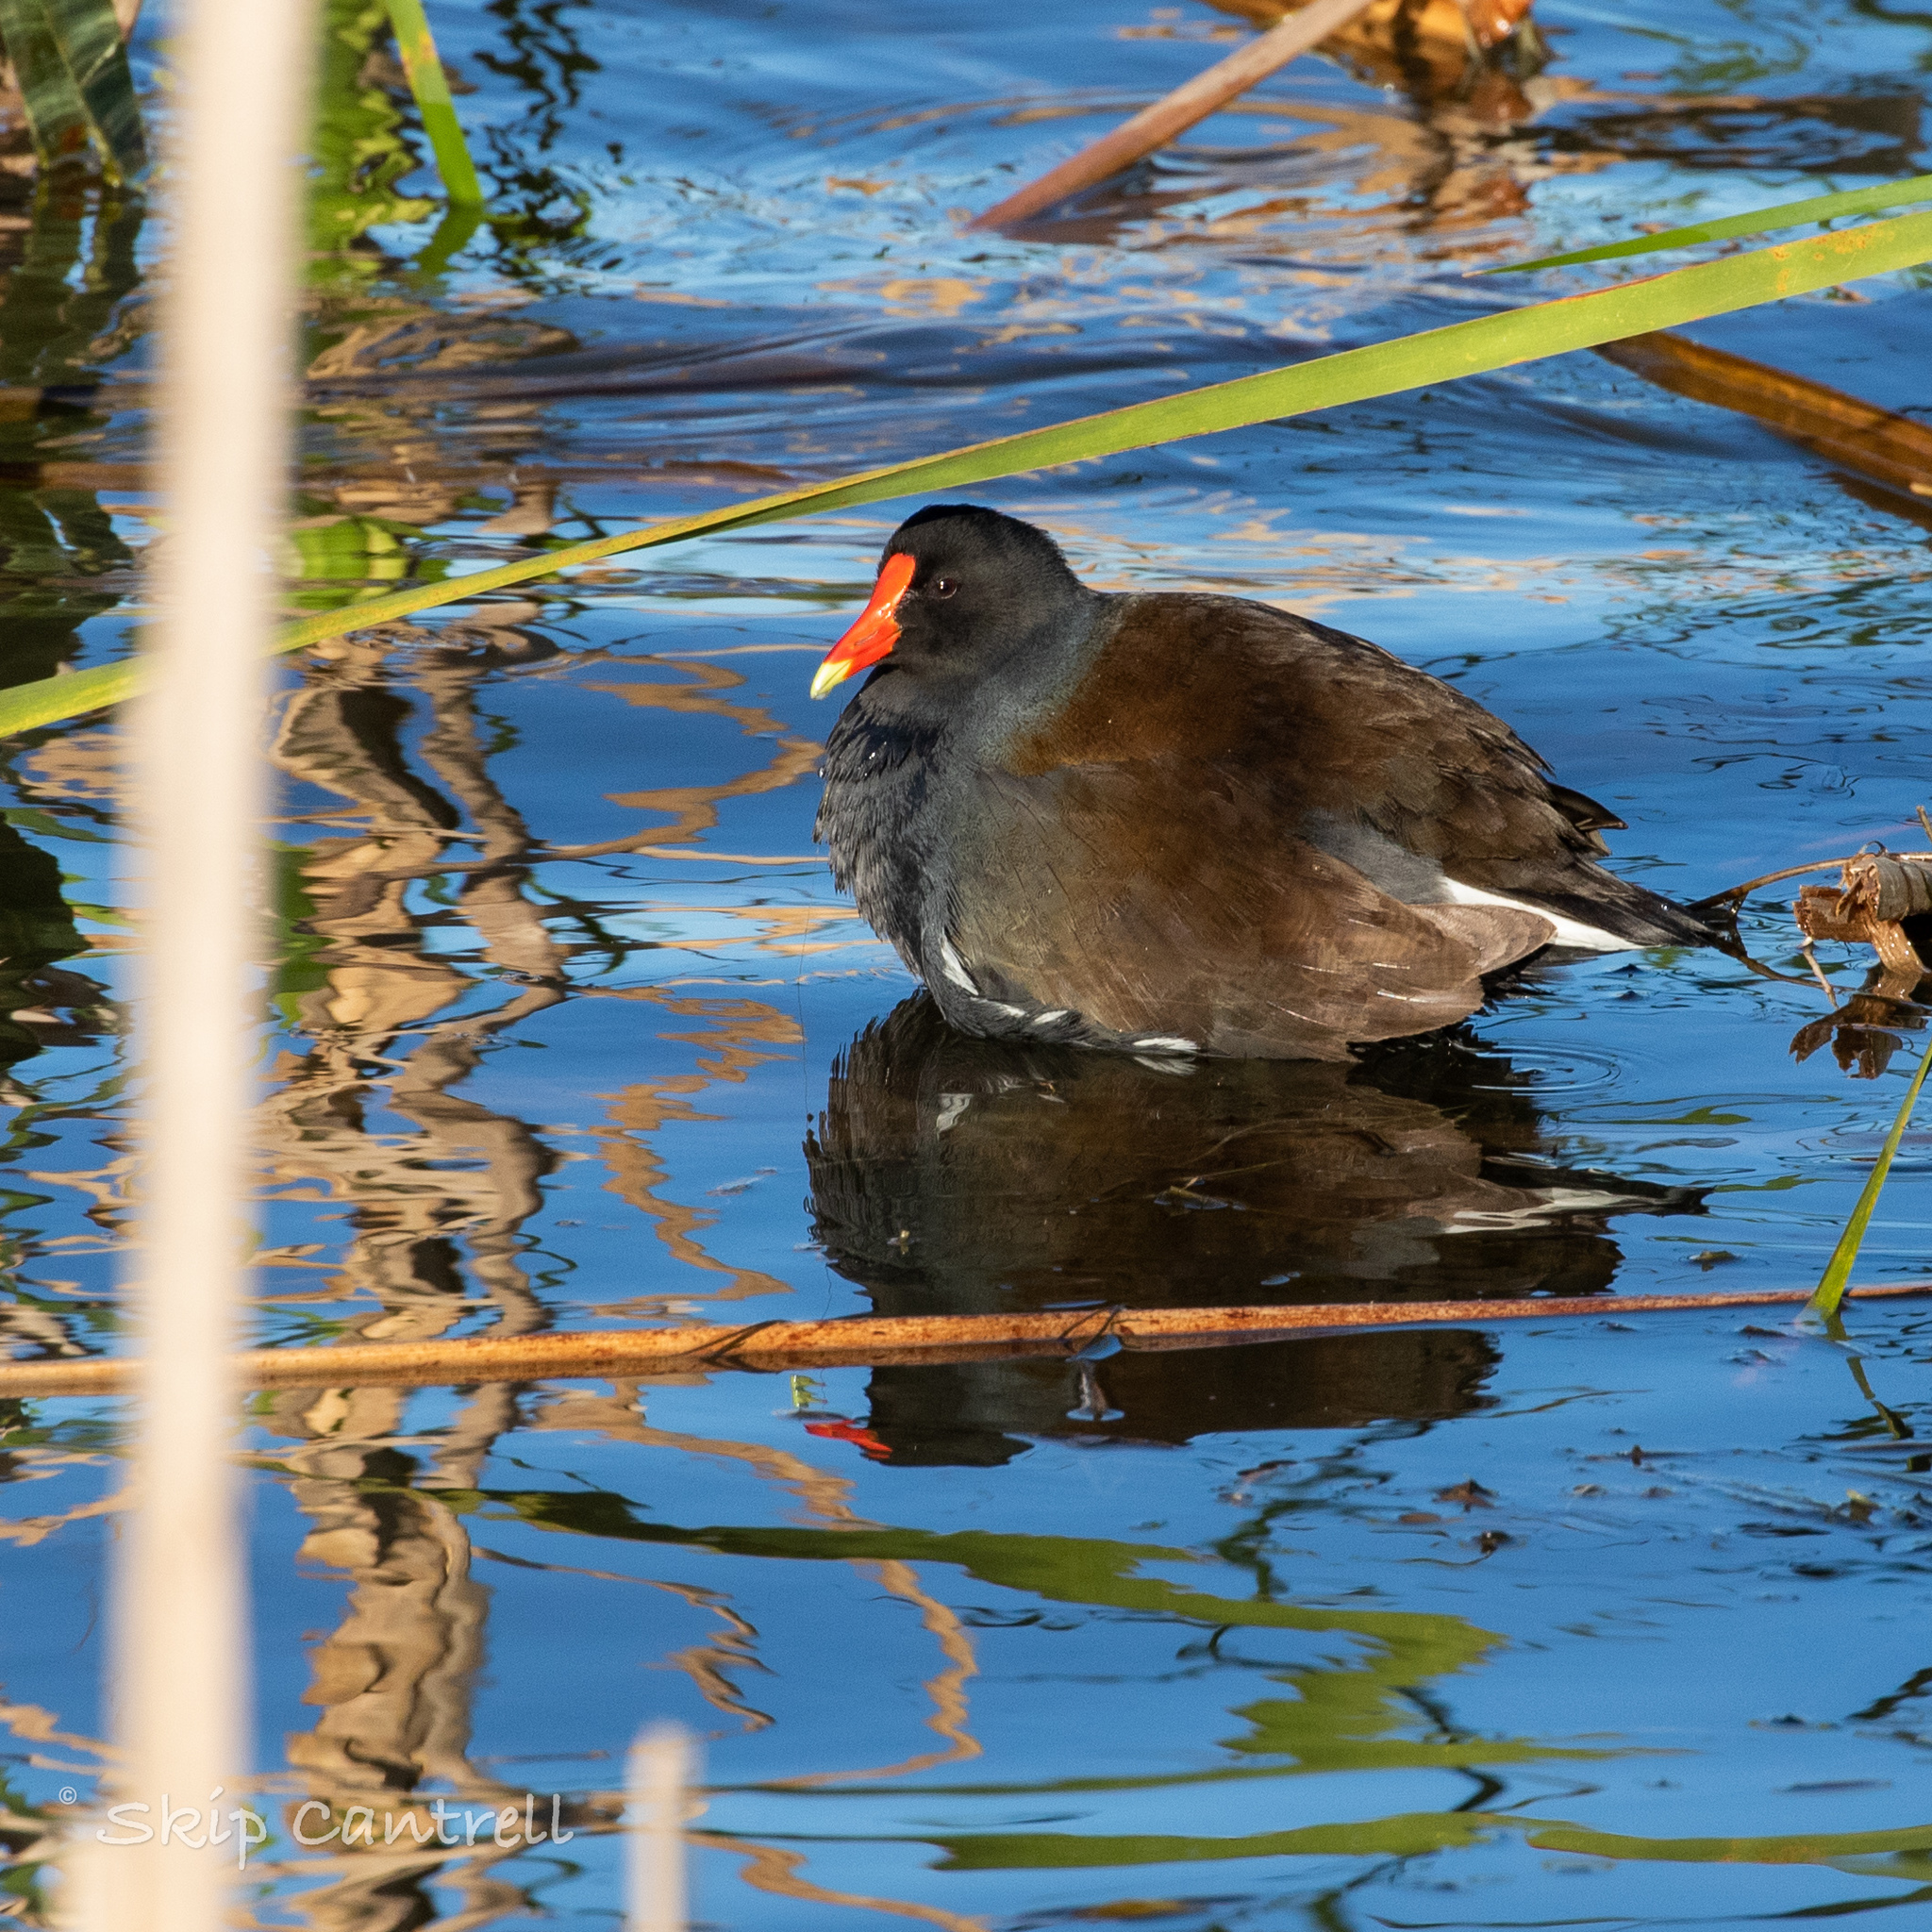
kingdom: Animalia
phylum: Chordata
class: Aves
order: Gruiformes
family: Rallidae
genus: Gallinula
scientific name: Gallinula chloropus
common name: Common moorhen
